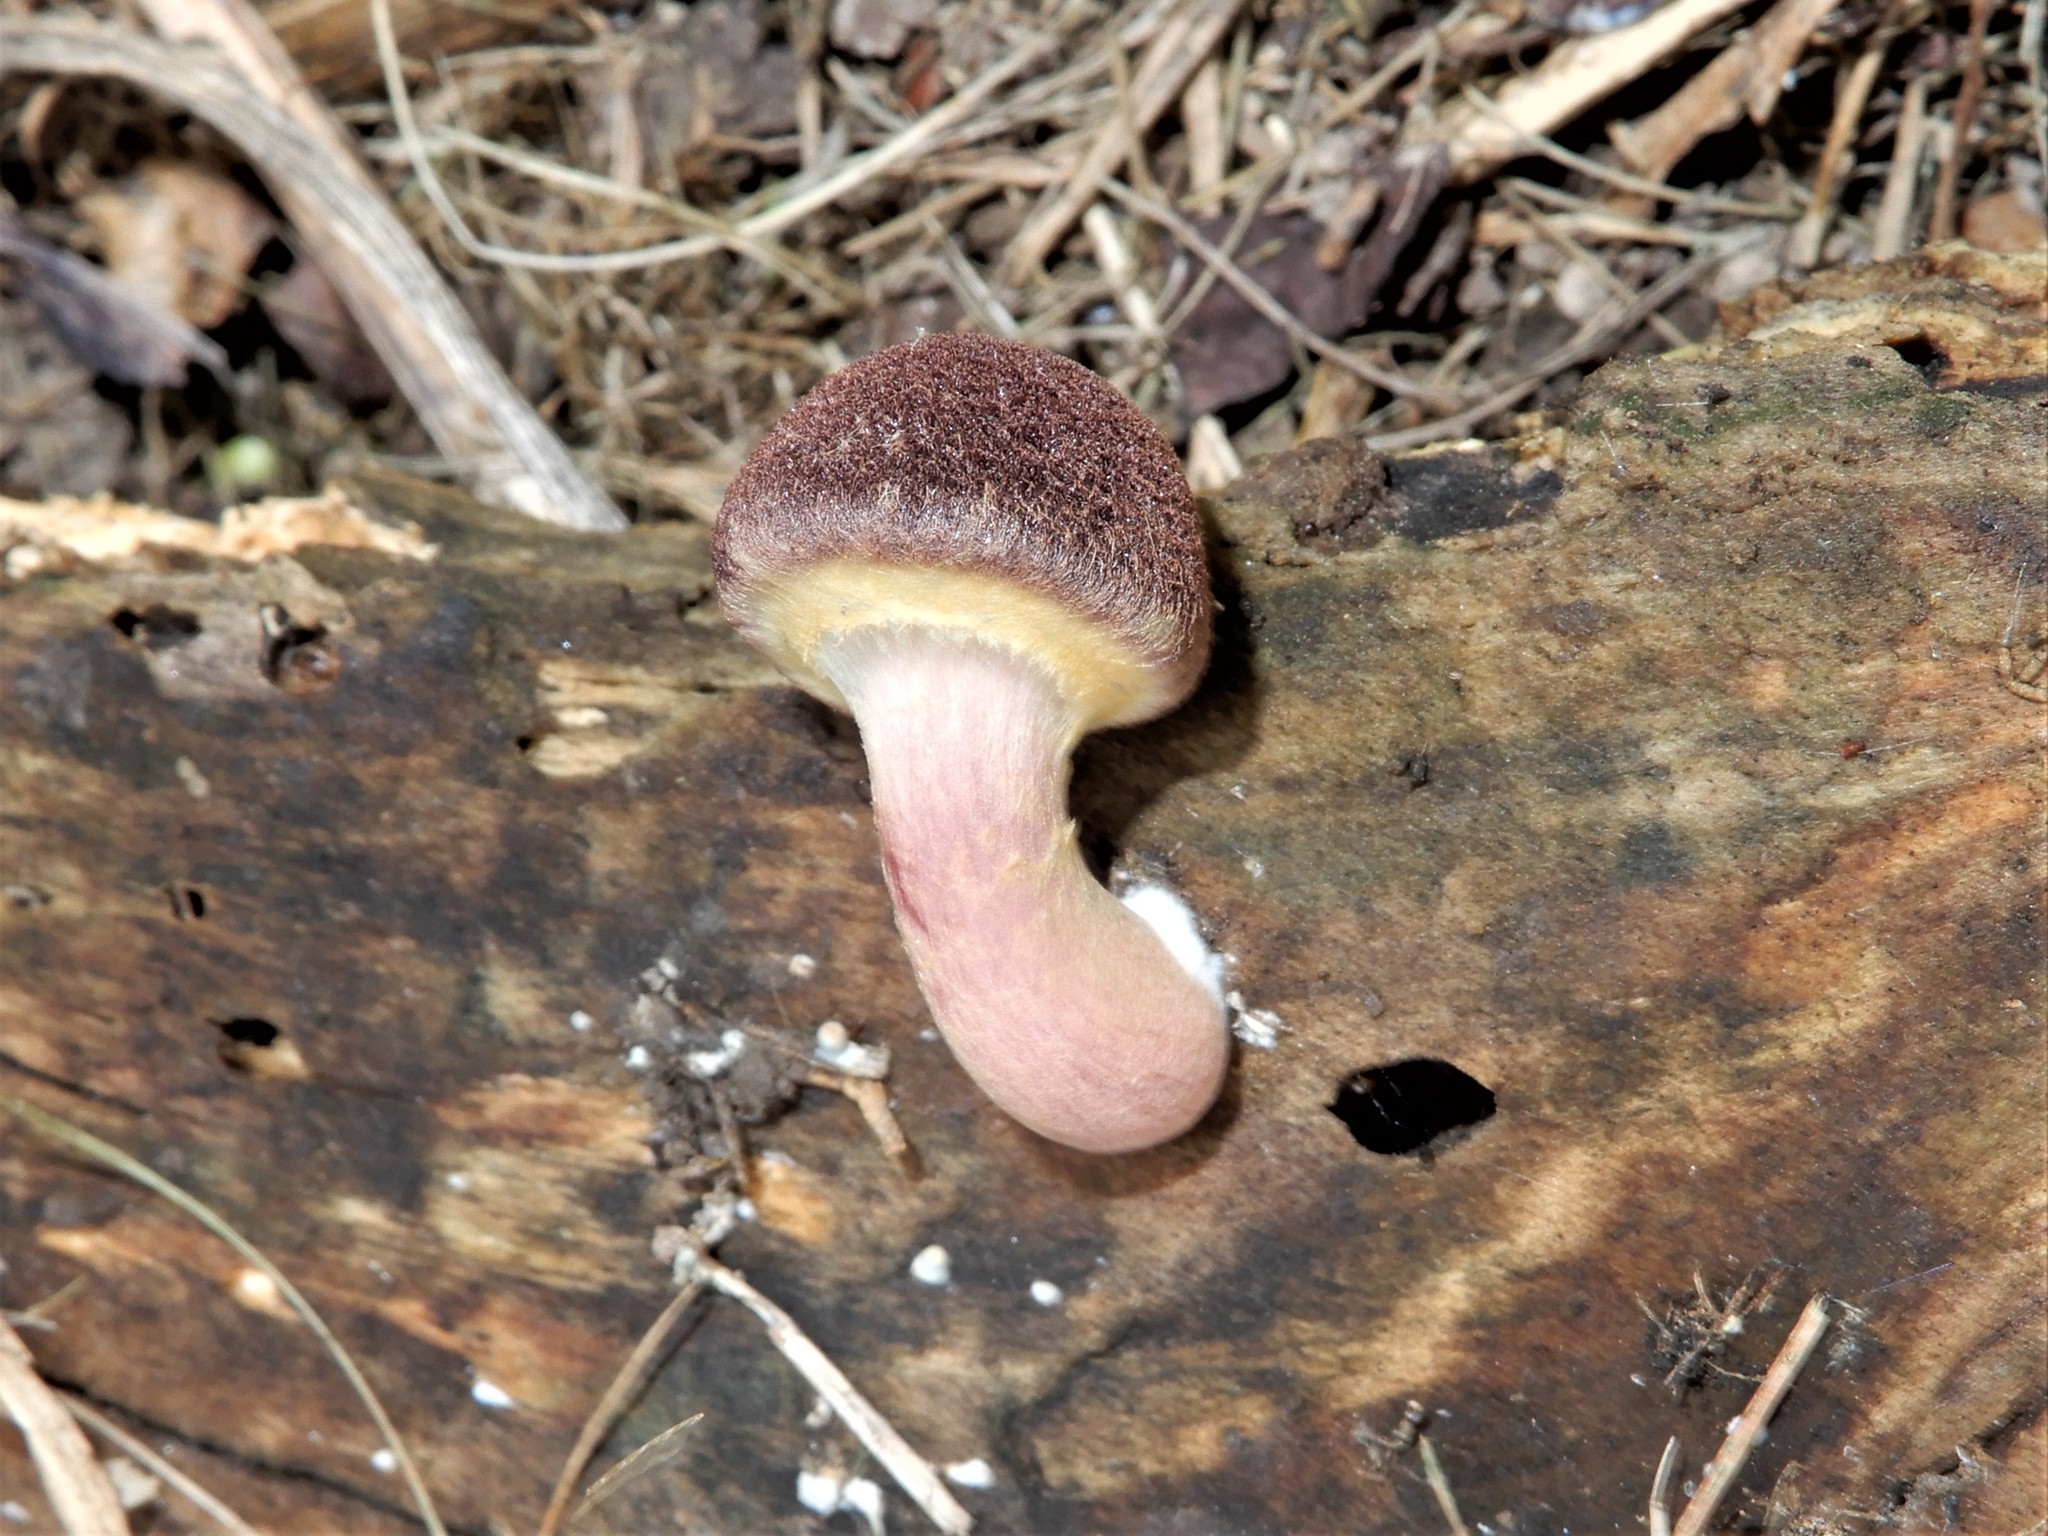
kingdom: Fungi
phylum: Basidiomycota
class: Agaricomycetes
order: Agaricales
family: Hymenogastraceae
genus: Gymnopilus
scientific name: Gymnopilus purpuratus
